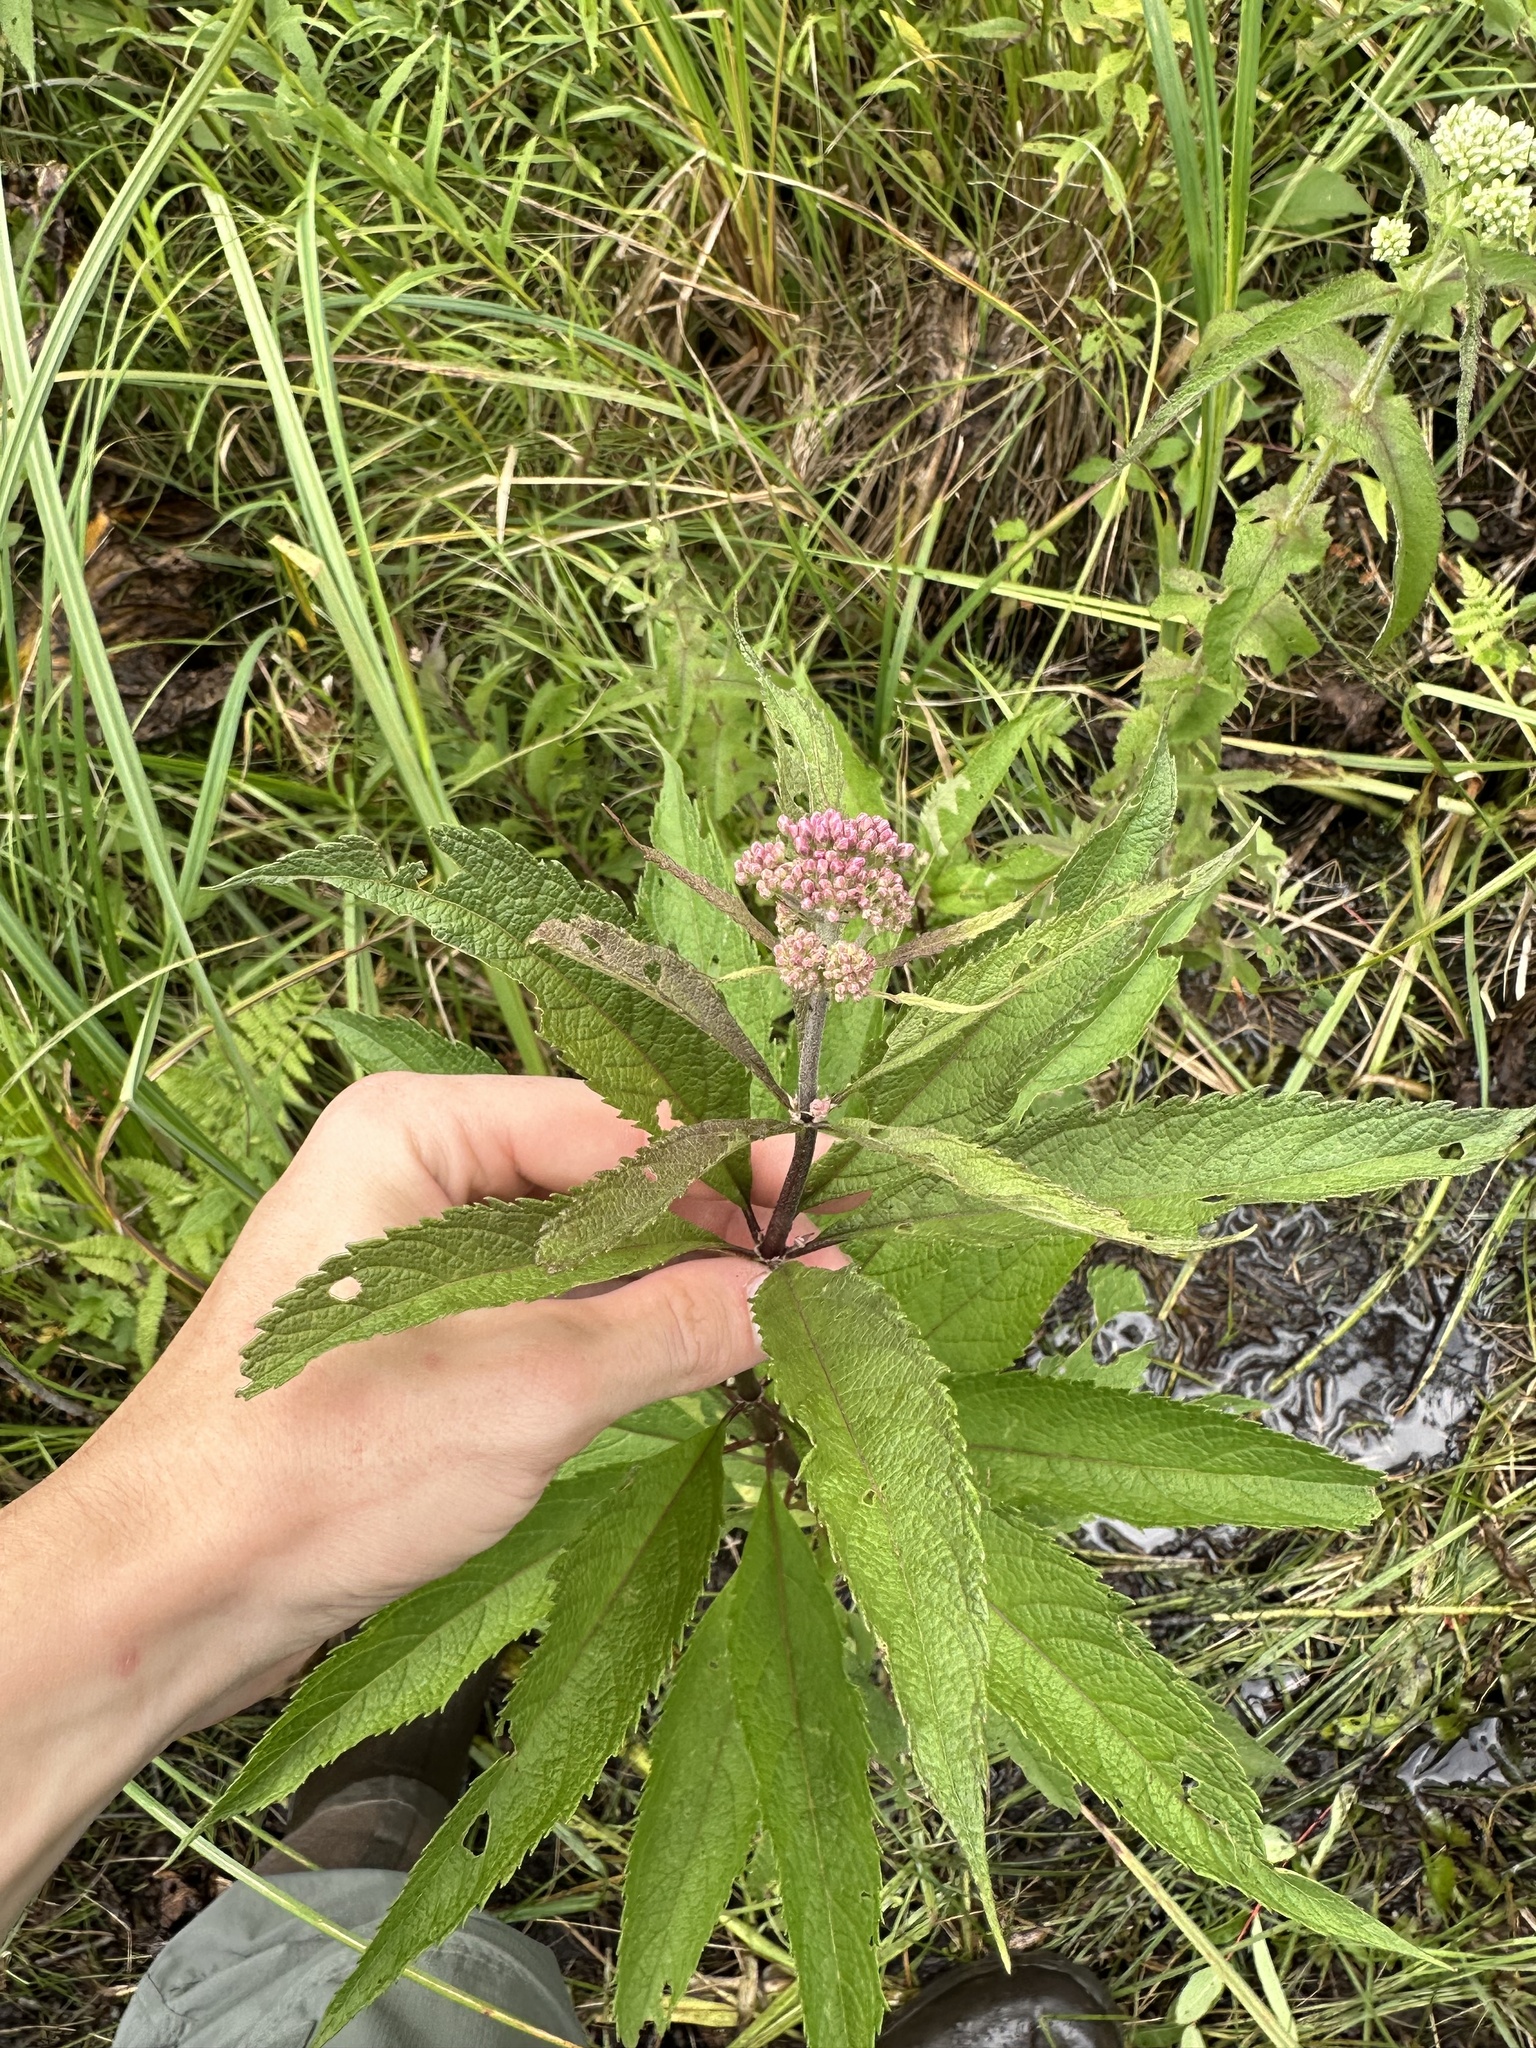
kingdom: Plantae
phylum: Tracheophyta
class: Magnoliopsida
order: Asterales
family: Asteraceae
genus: Eutrochium
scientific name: Eutrochium maculatum
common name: Spotted joe pye weed
